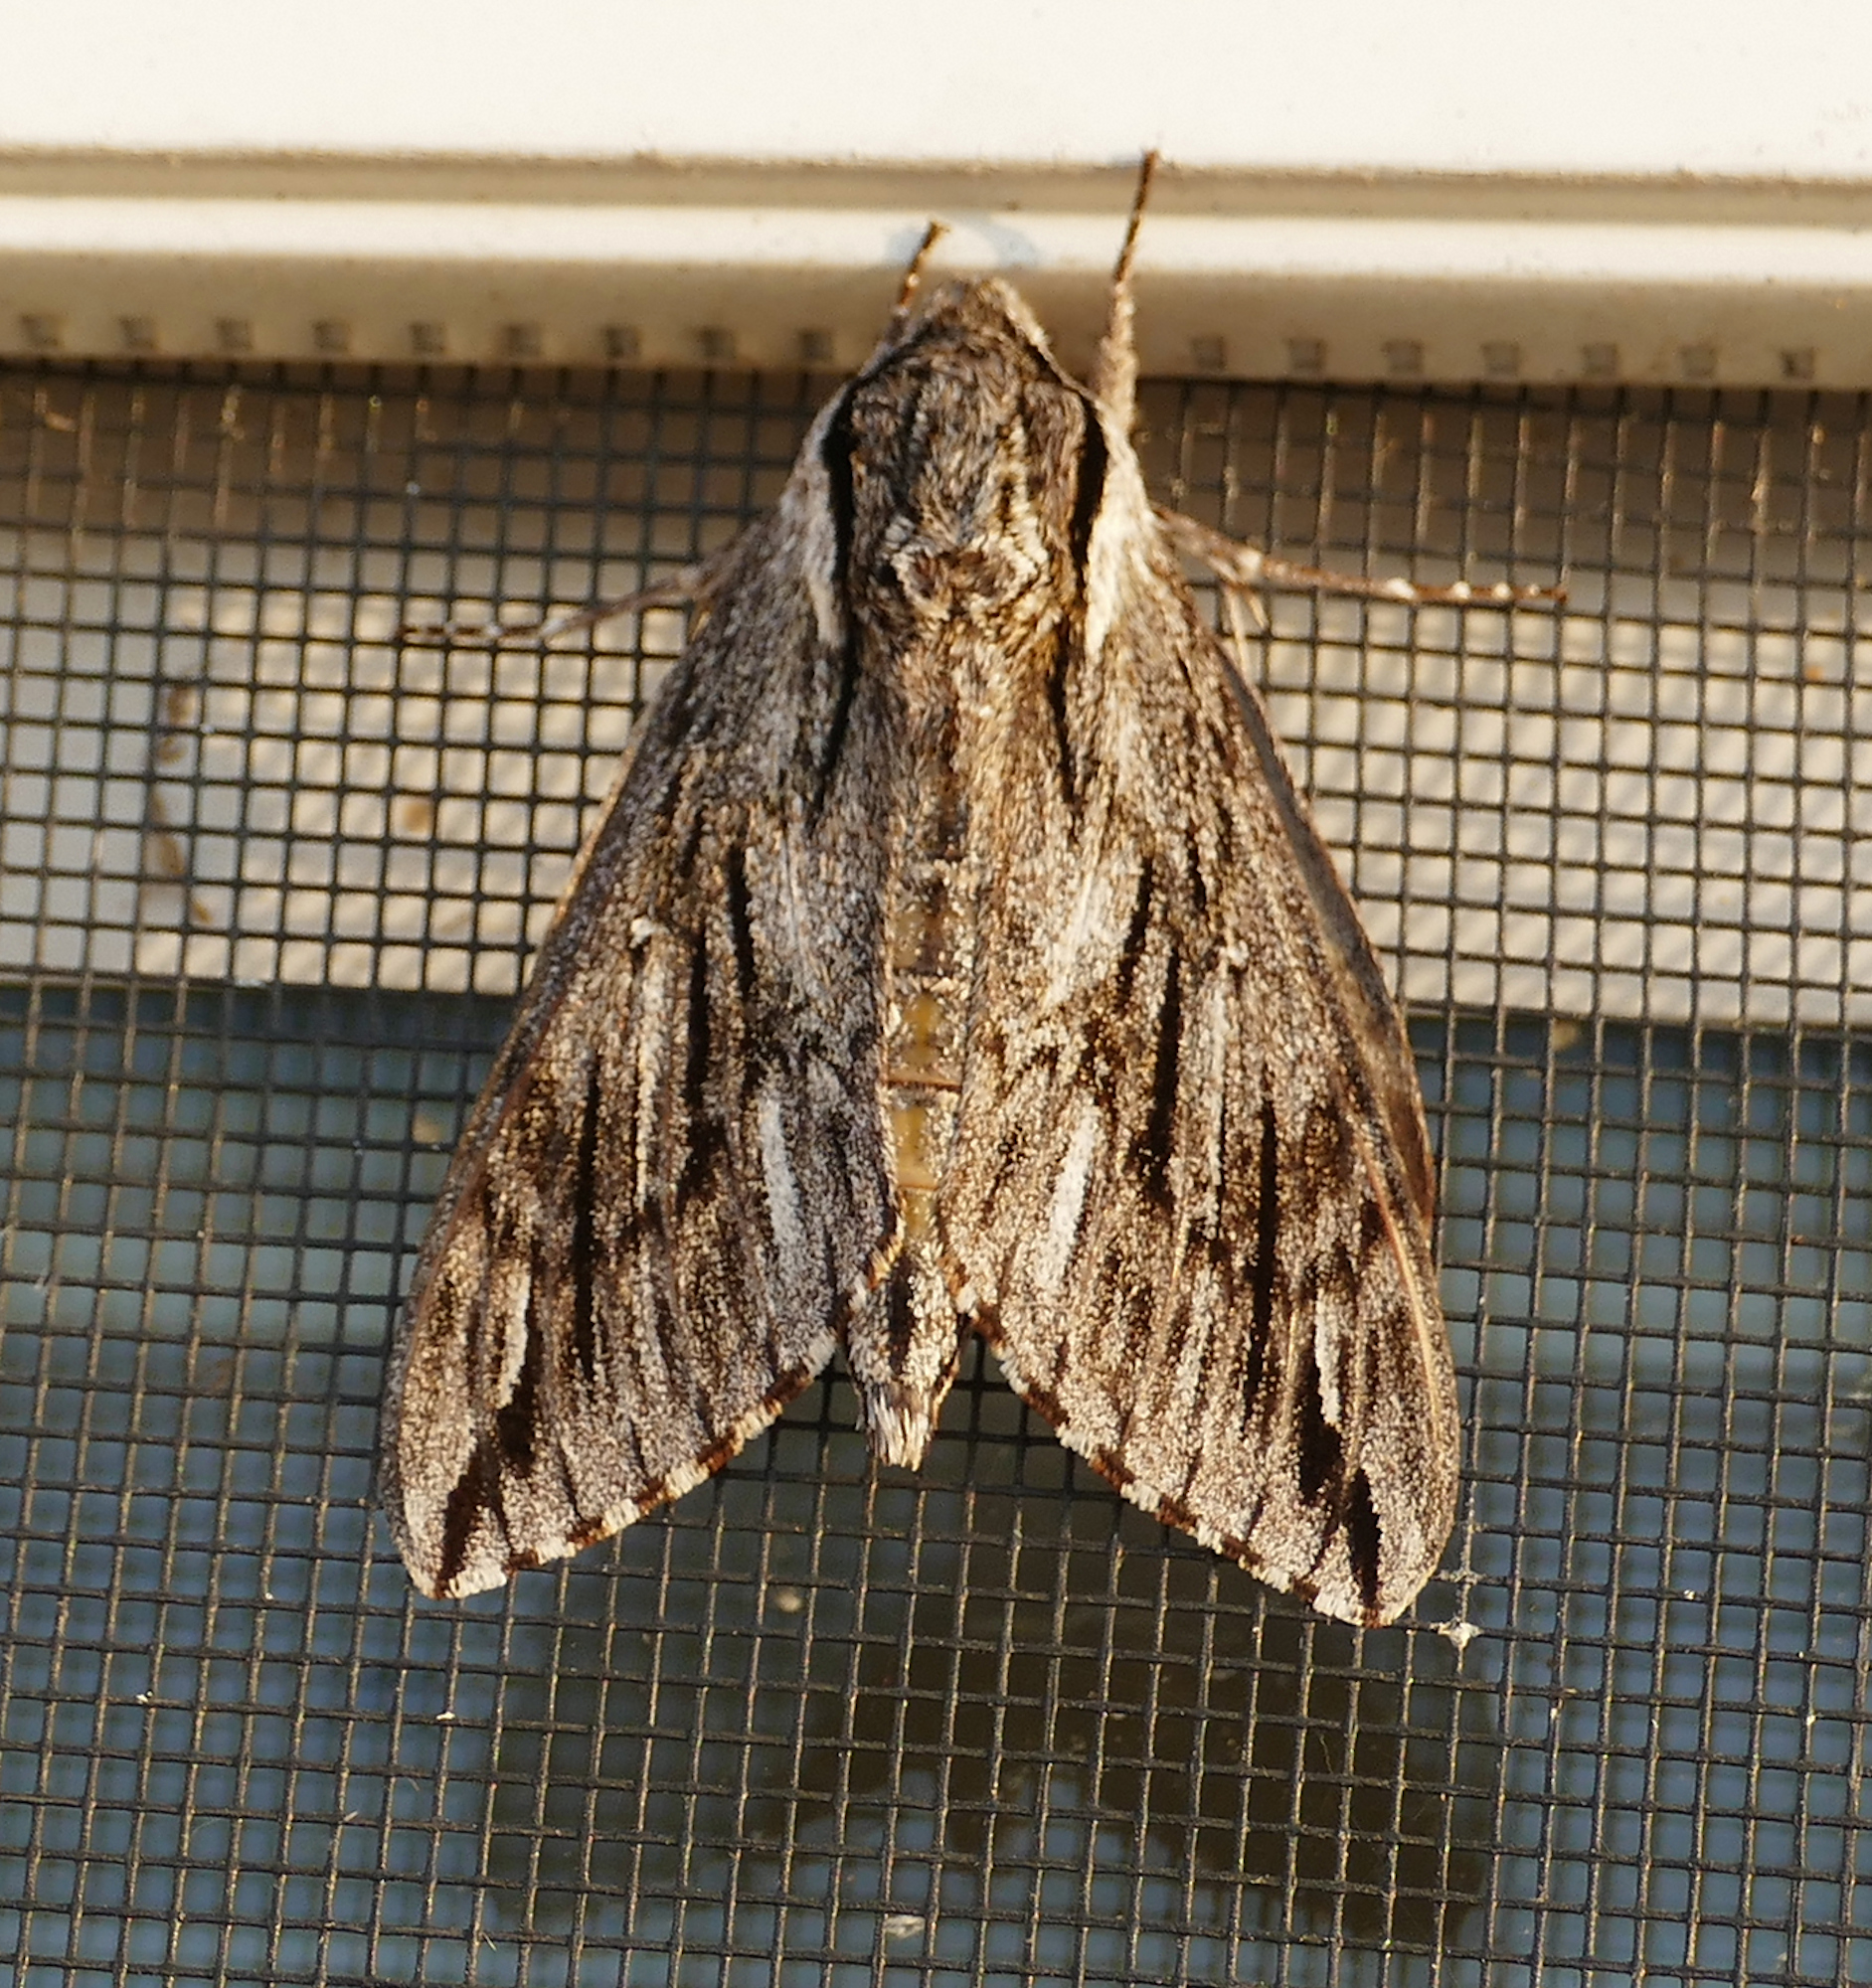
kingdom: Animalia
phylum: Arthropoda
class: Insecta
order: Lepidoptera
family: Sphingidae
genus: Paratrea
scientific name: Paratrea plebeja
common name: Plebian sphinx
